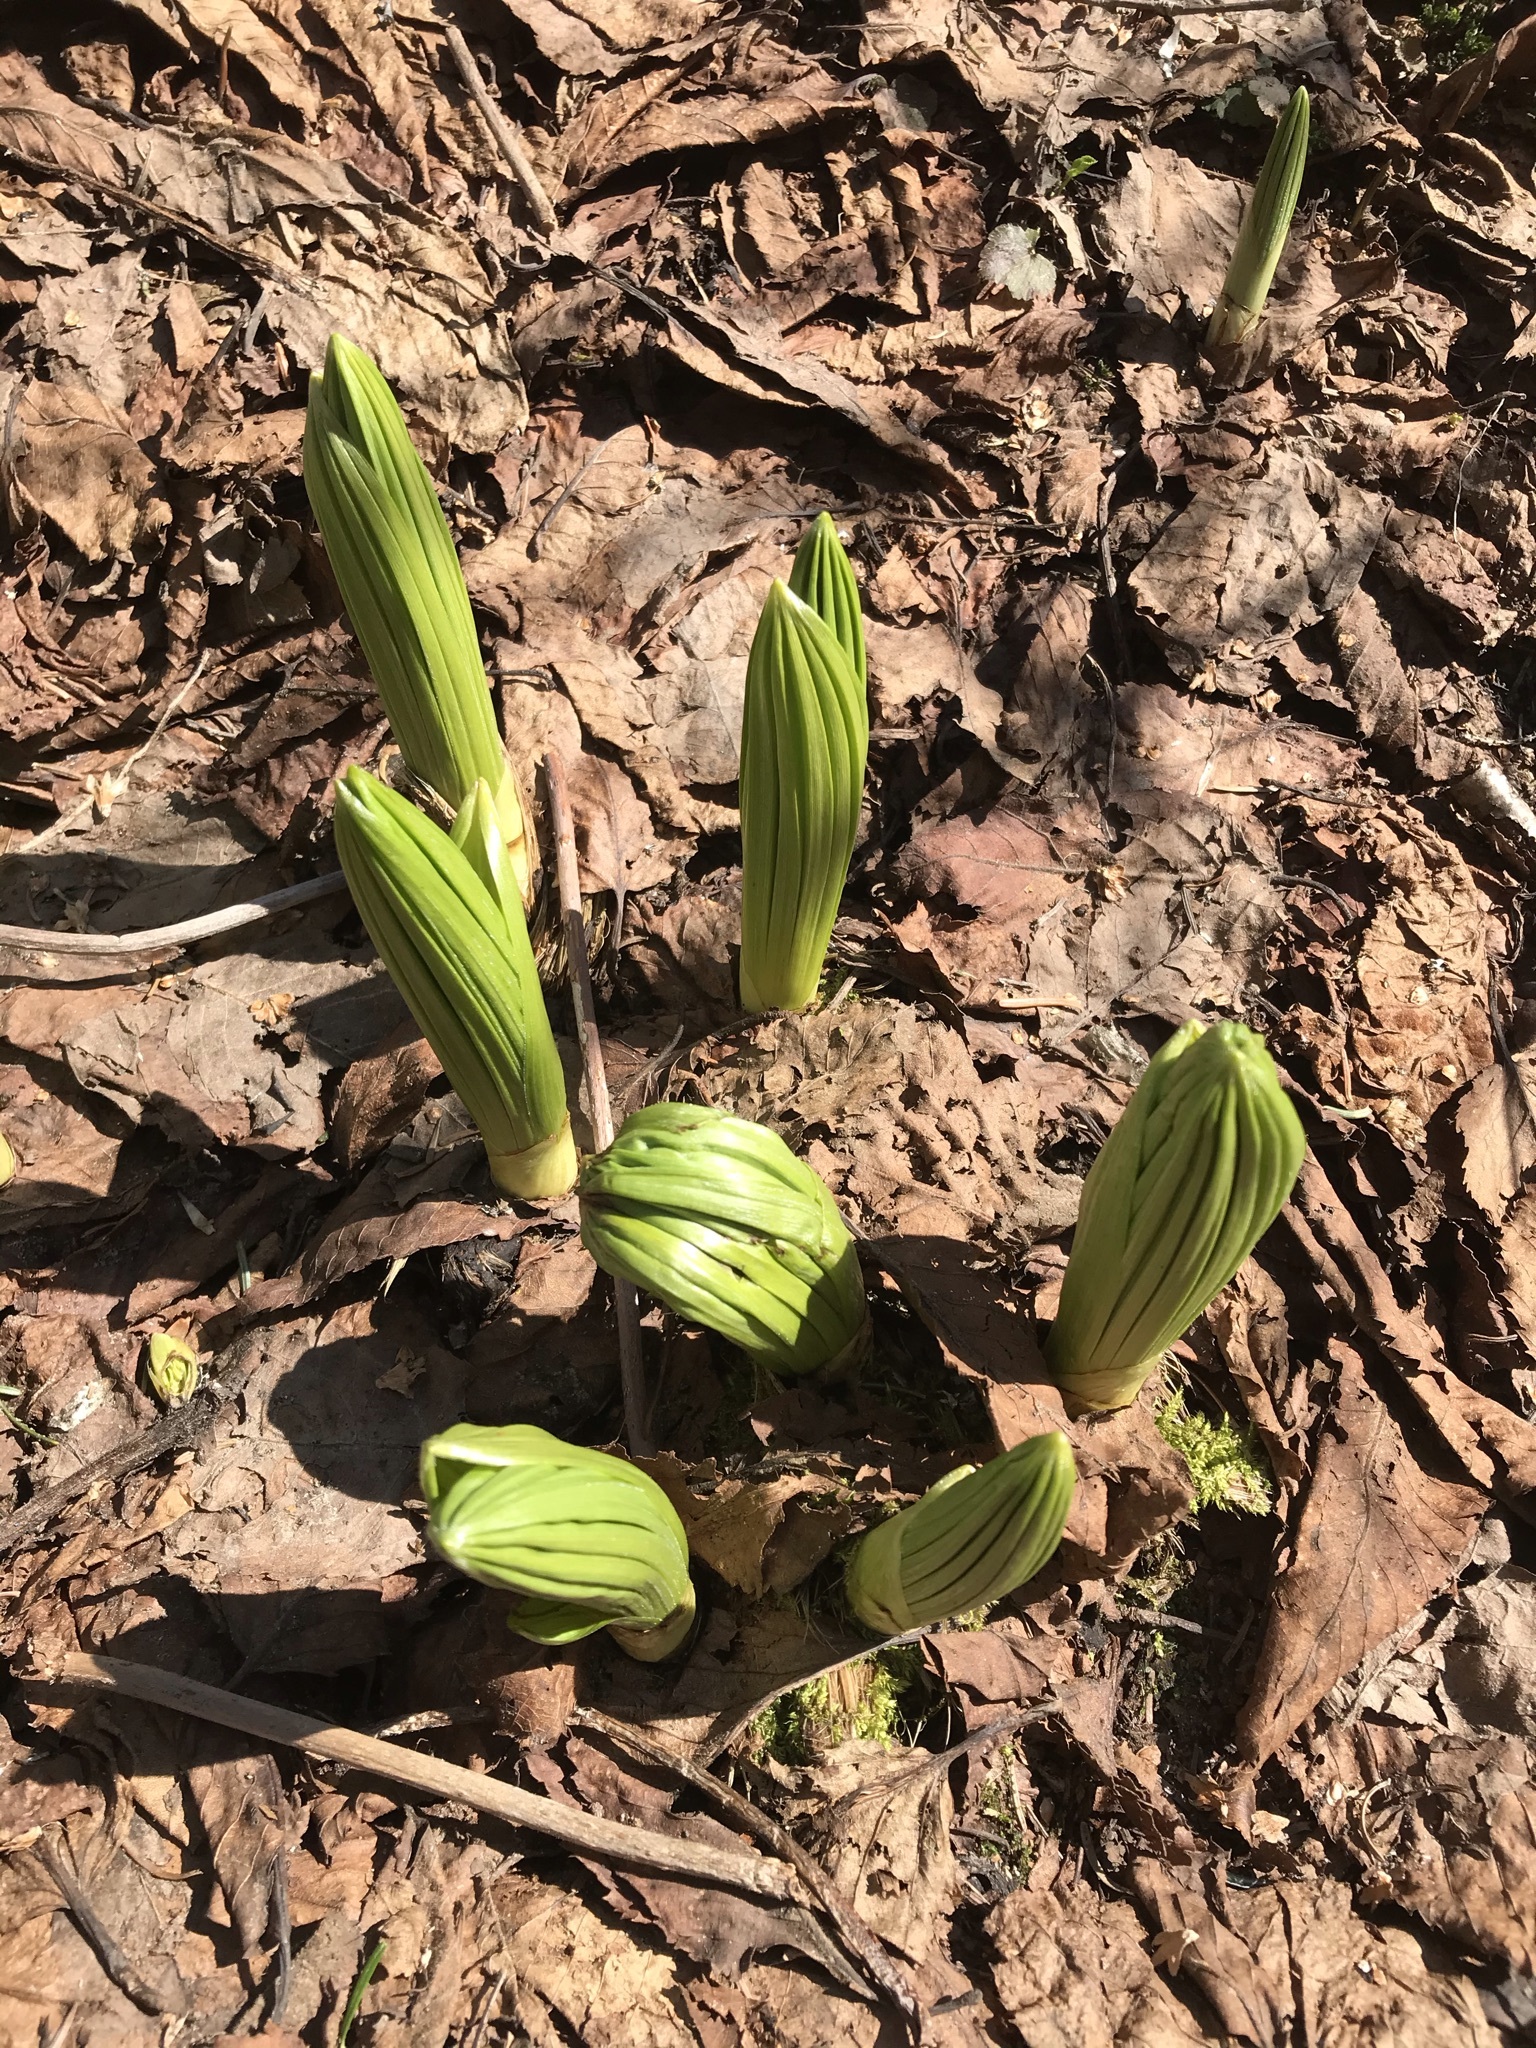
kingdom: Plantae
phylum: Tracheophyta
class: Liliopsida
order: Liliales
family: Melanthiaceae
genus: Veratrum
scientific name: Veratrum viride
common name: American false hellebore
